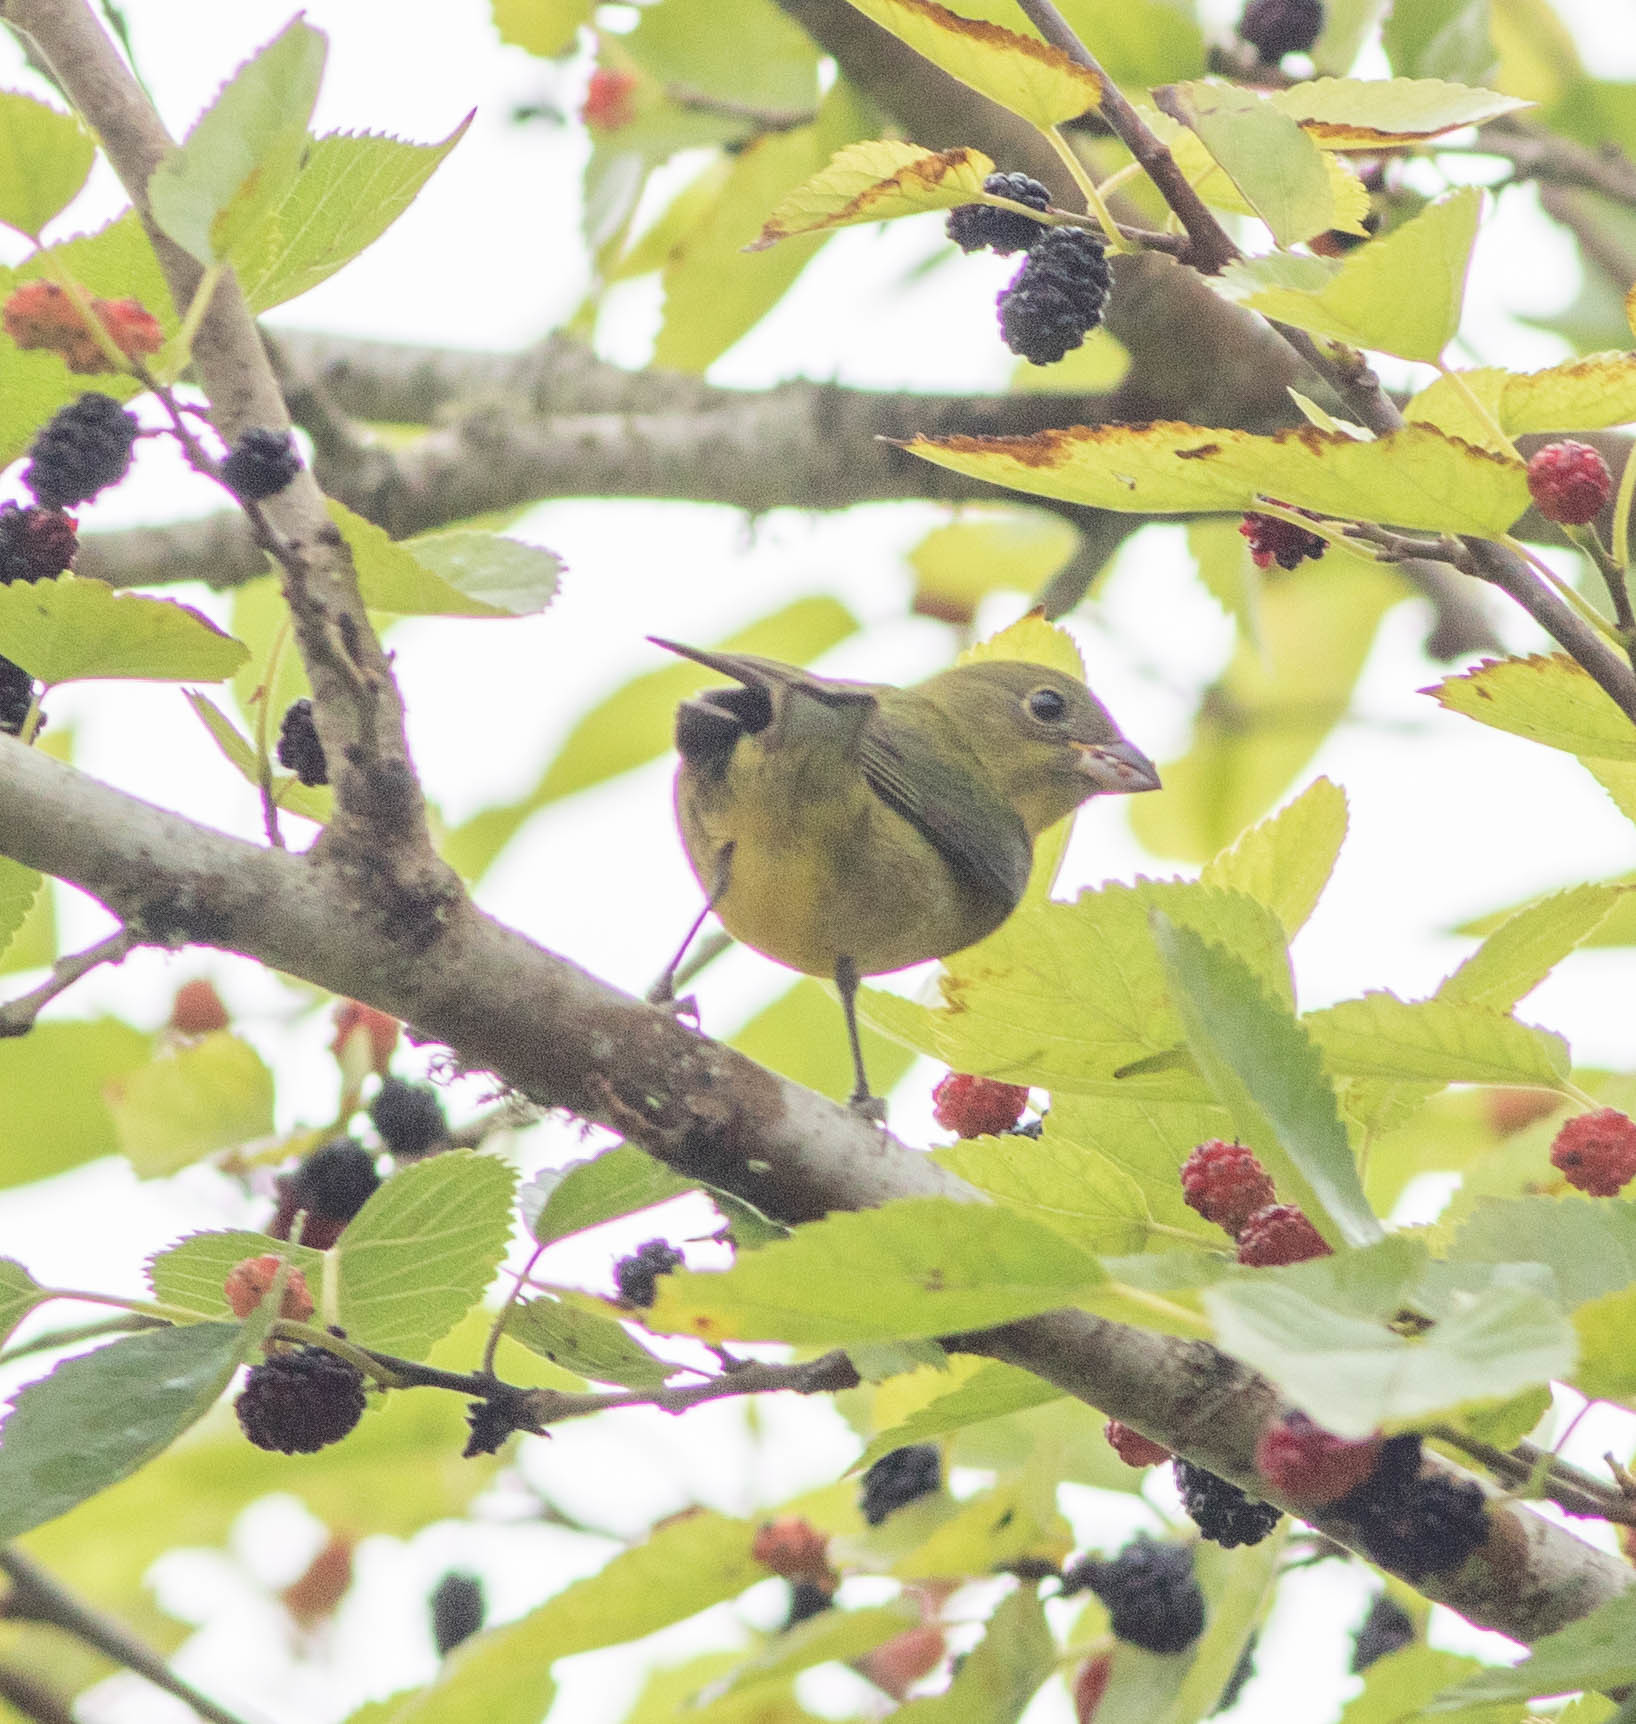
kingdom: Animalia
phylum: Chordata
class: Aves
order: Passeriformes
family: Cardinalidae
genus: Passerina
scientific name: Passerina ciris
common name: Painted bunting
